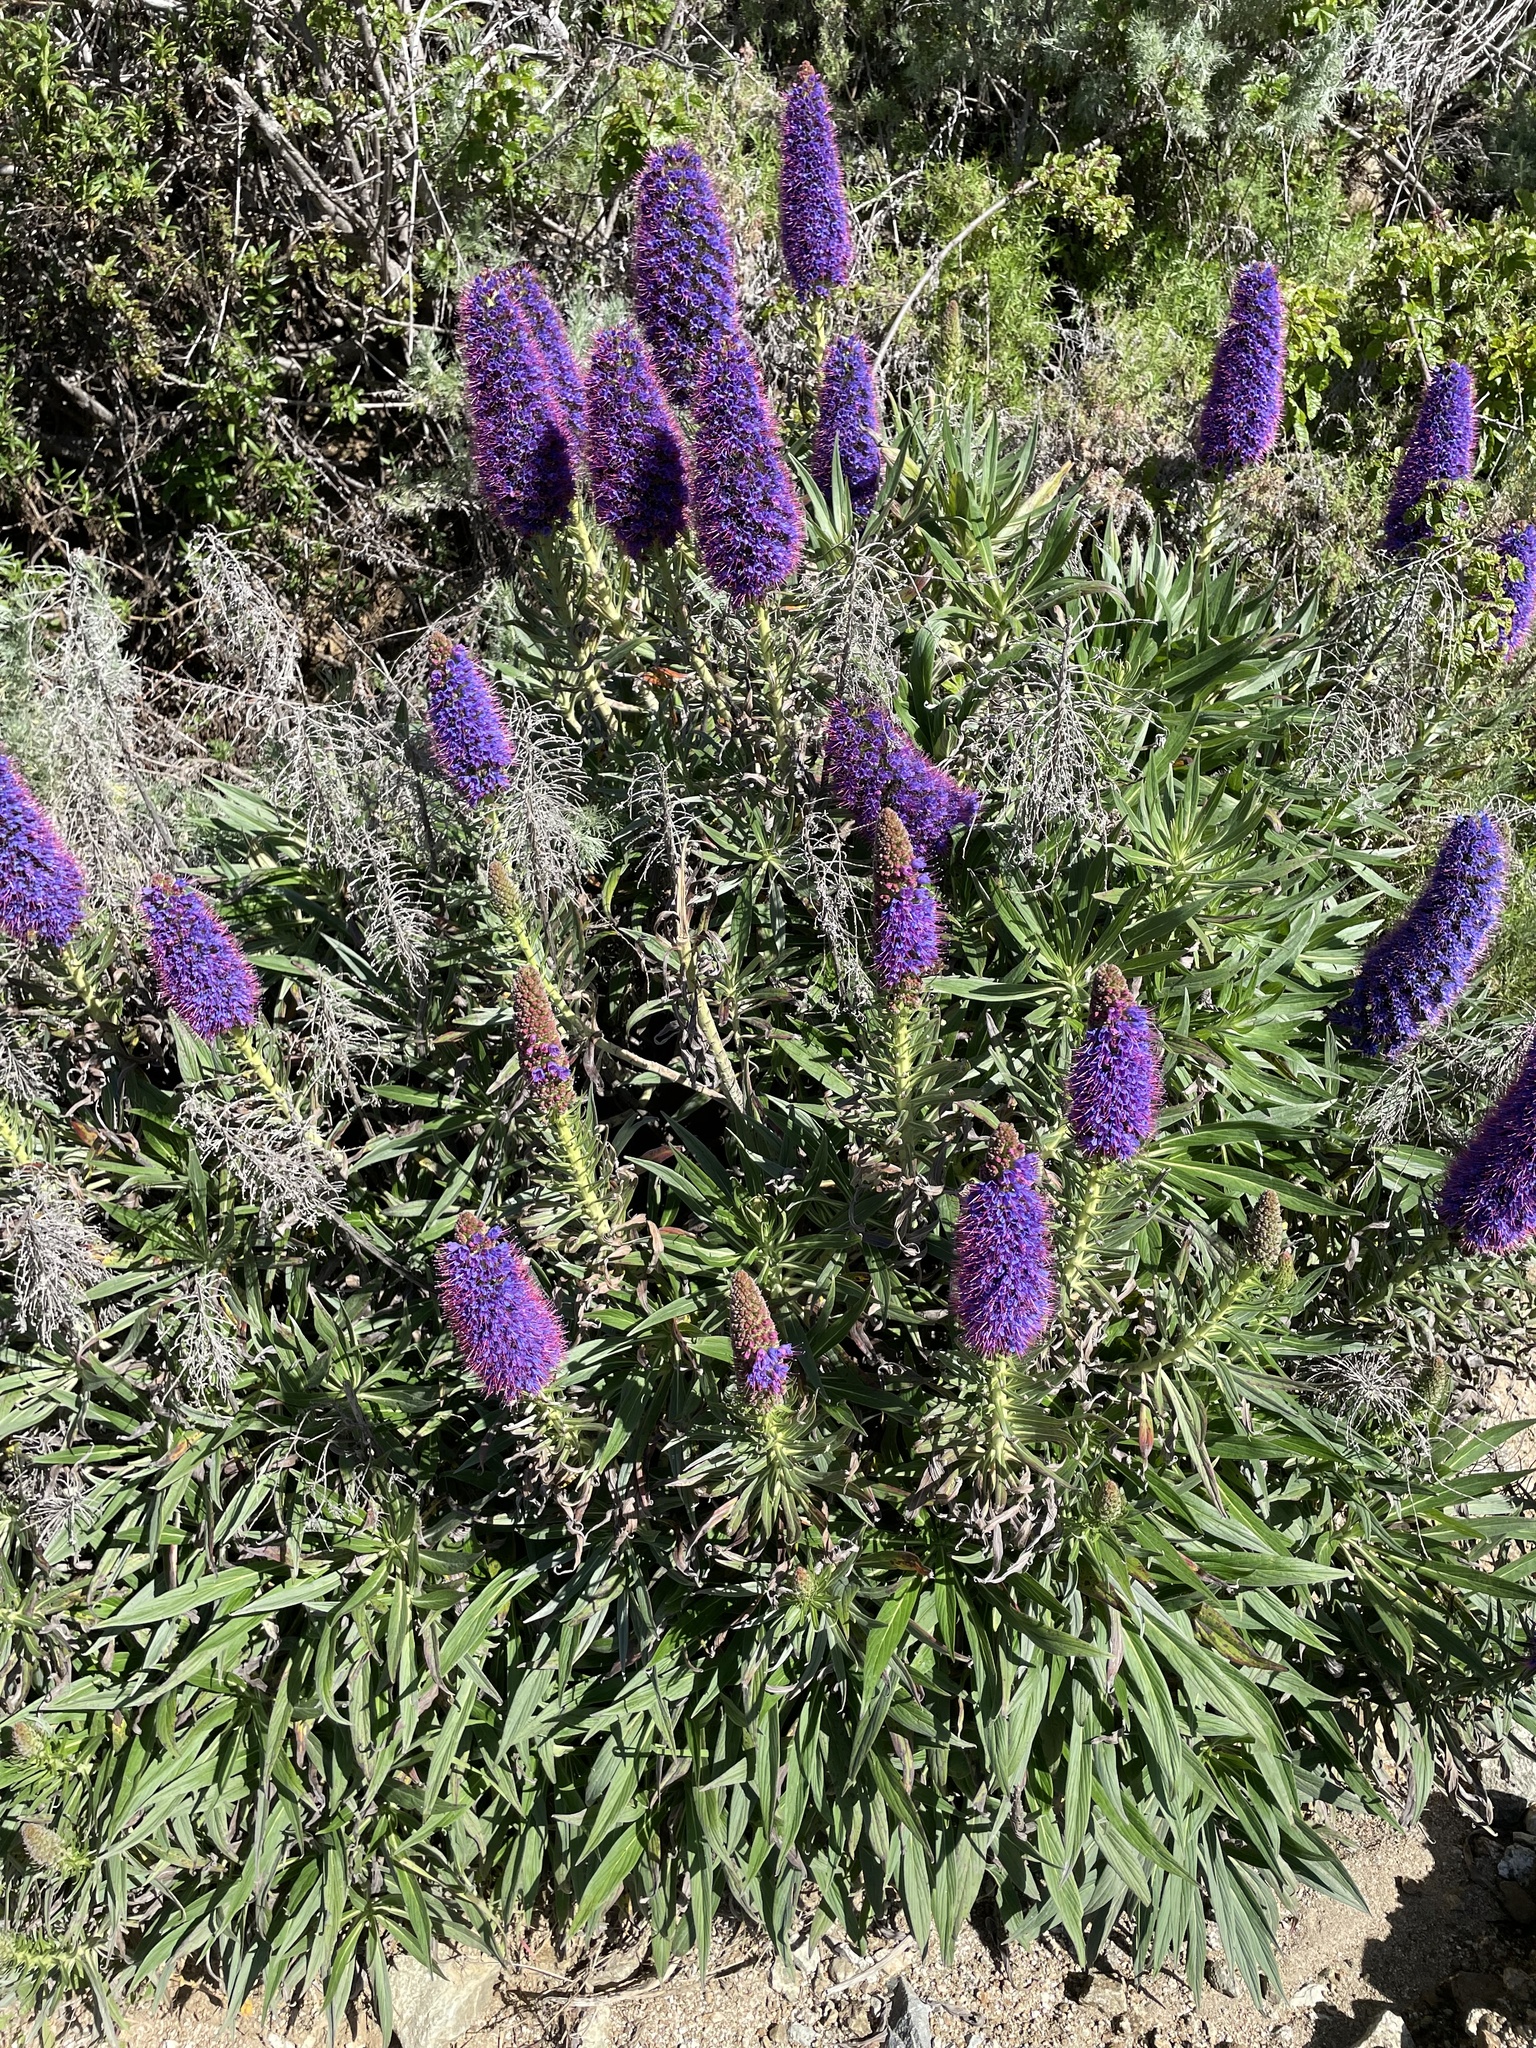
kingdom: Plantae
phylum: Tracheophyta
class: Magnoliopsida
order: Boraginales
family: Boraginaceae
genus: Echium
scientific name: Echium candicans
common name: Pride of madeira
